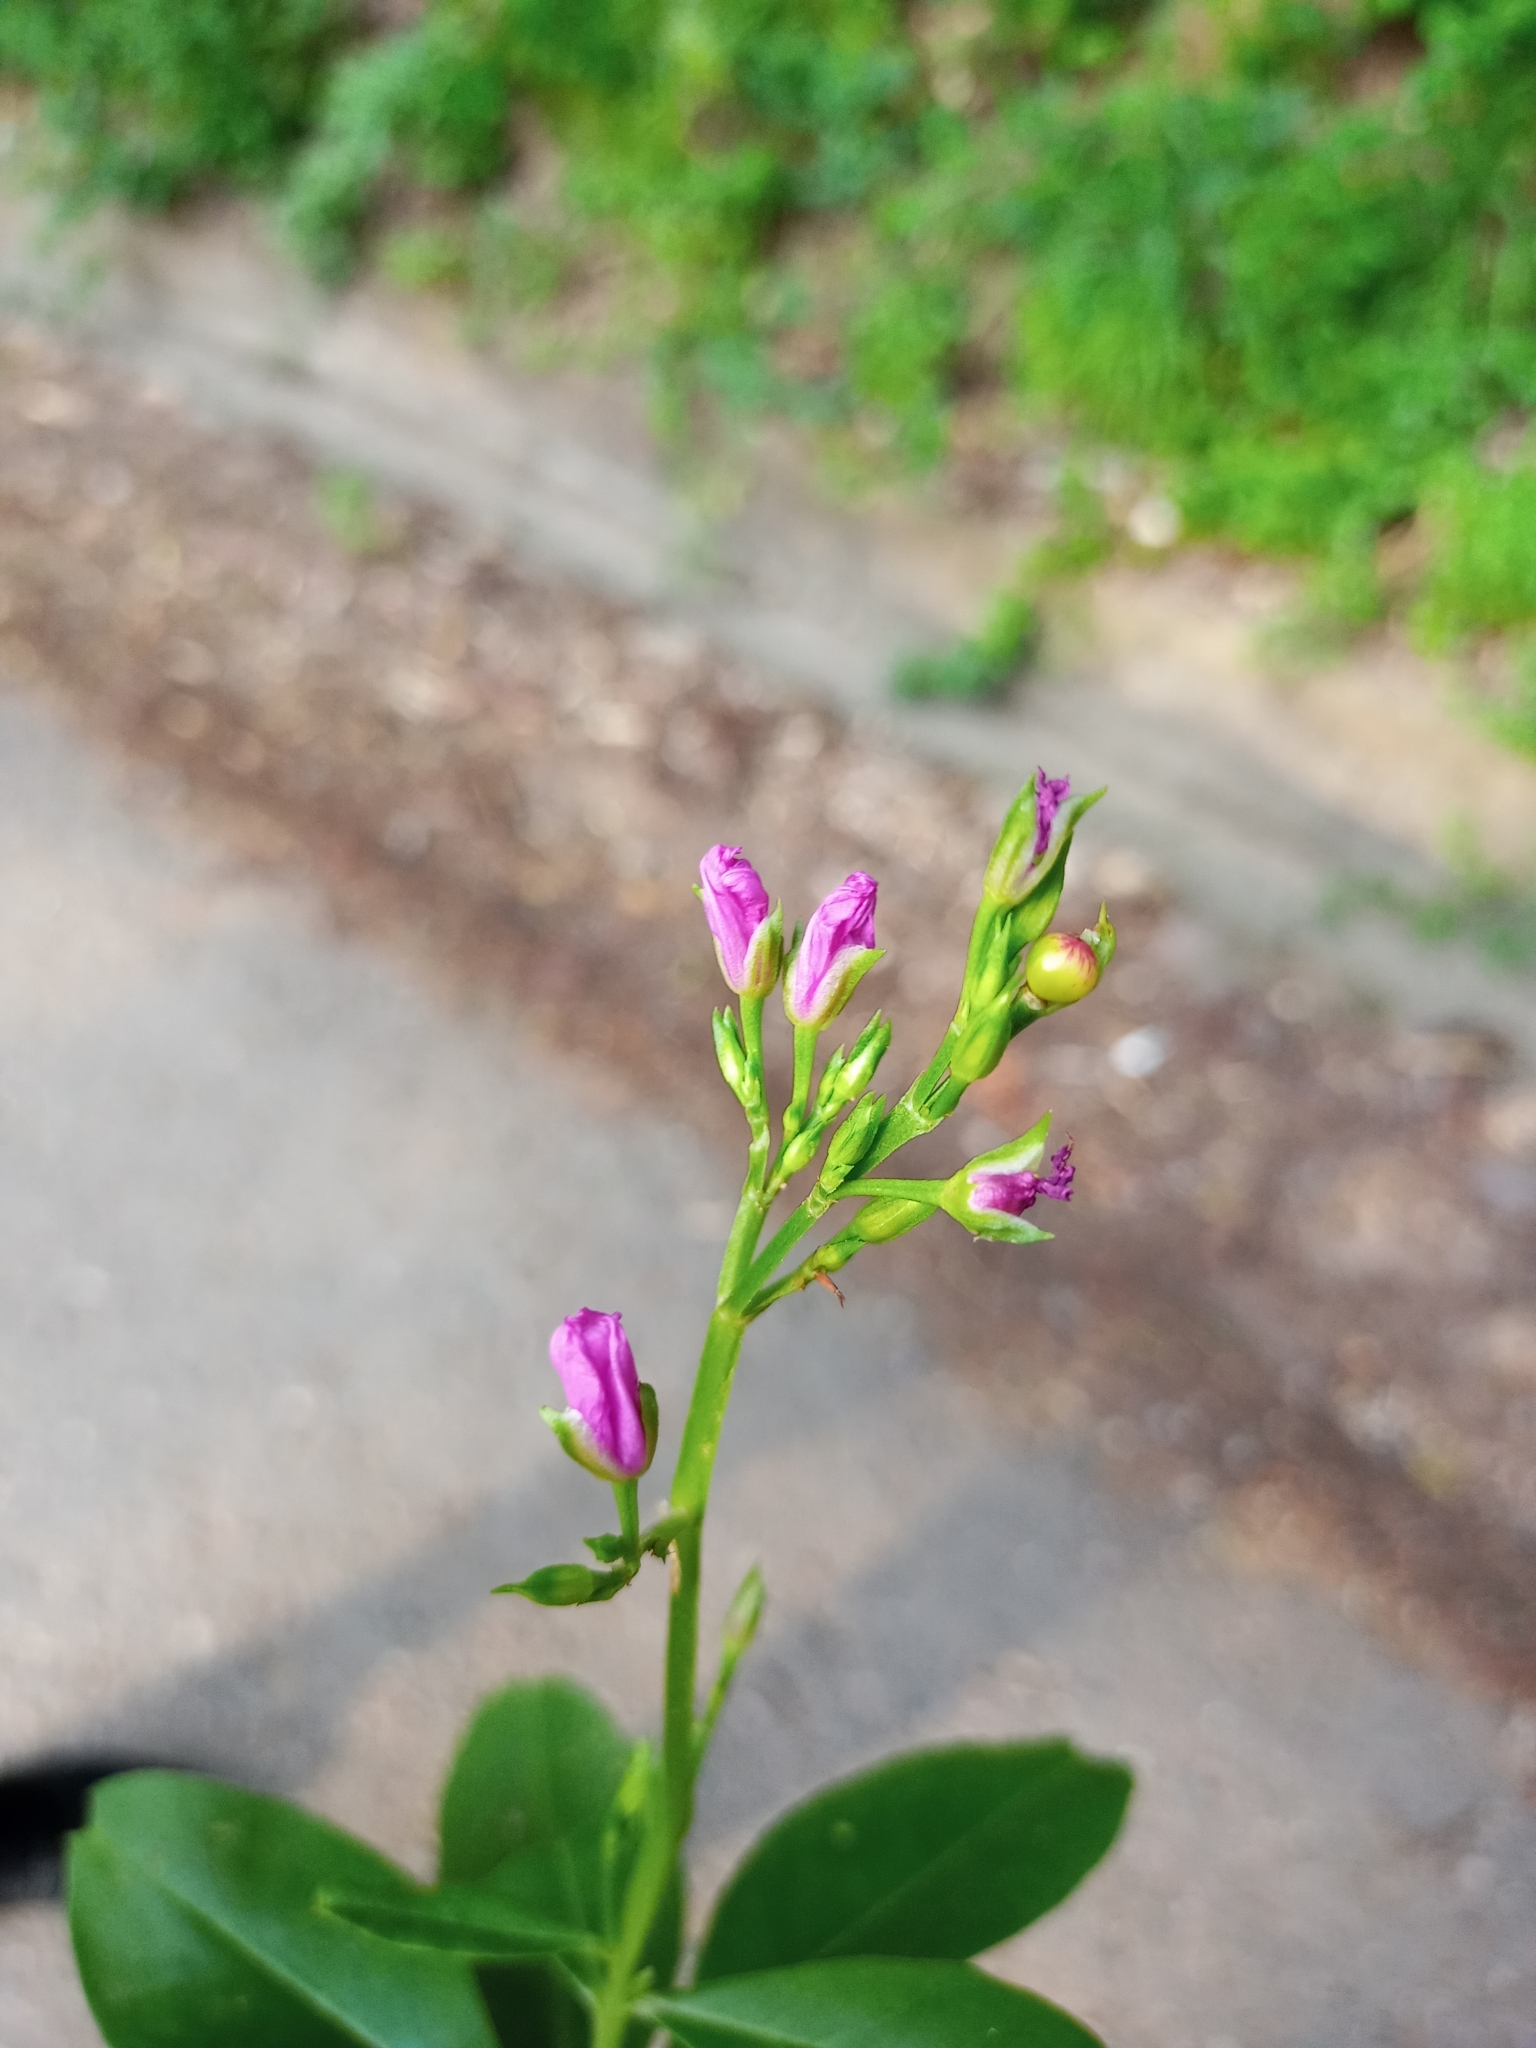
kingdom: Plantae
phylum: Tracheophyta
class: Magnoliopsida
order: Caryophyllales
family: Talinaceae
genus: Talinum
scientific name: Talinum fruticosum
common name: Verdolaga-francesa
